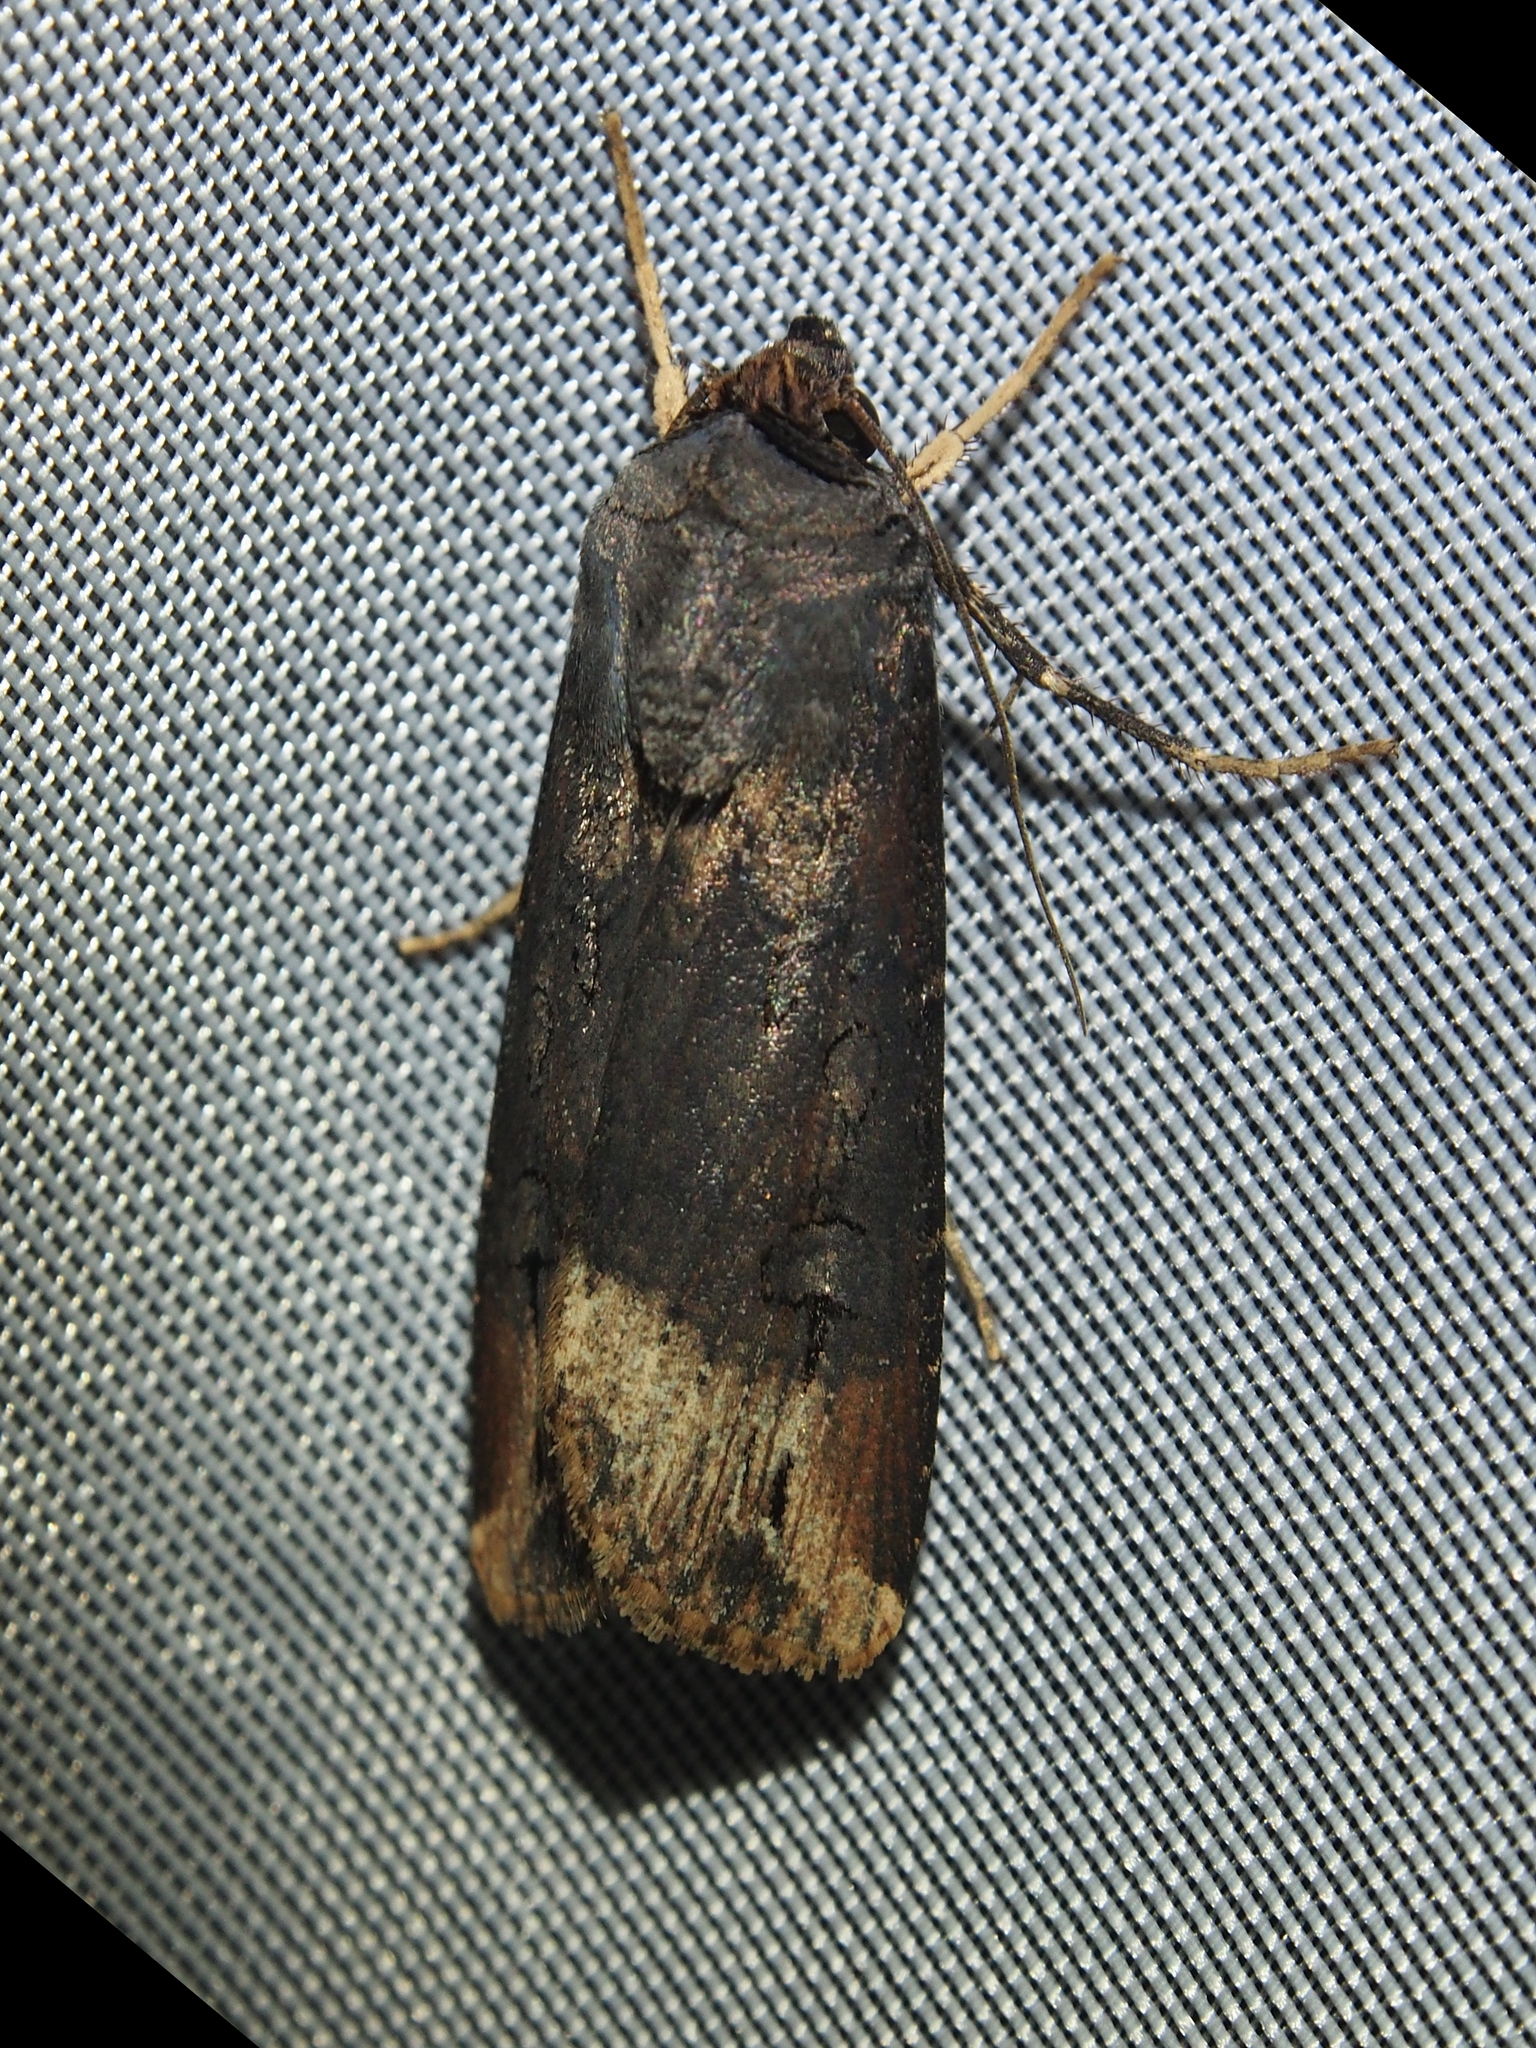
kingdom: Animalia
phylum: Arthropoda
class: Insecta
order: Lepidoptera
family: Noctuidae
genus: Agrotis
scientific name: Agrotis ipsilon
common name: Dark sword-grass
